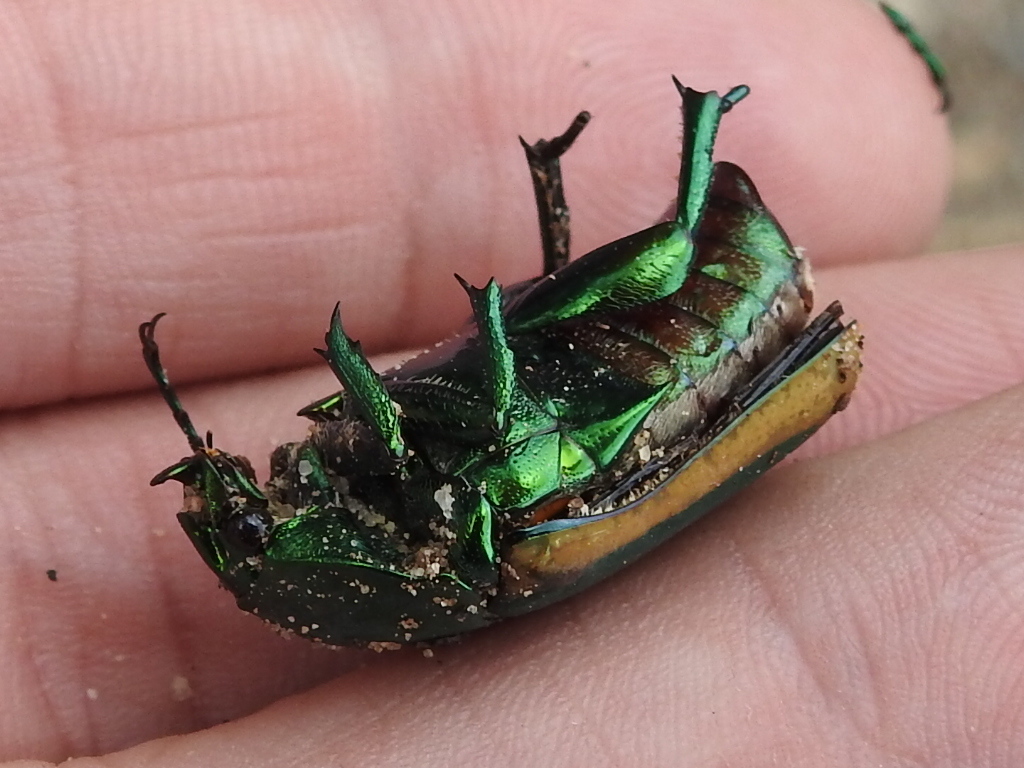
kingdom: Animalia
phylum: Arthropoda
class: Insecta
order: Coleoptera
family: Scarabaeidae
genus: Cotinis
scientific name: Cotinis mutabilis
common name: Figeater beetle
